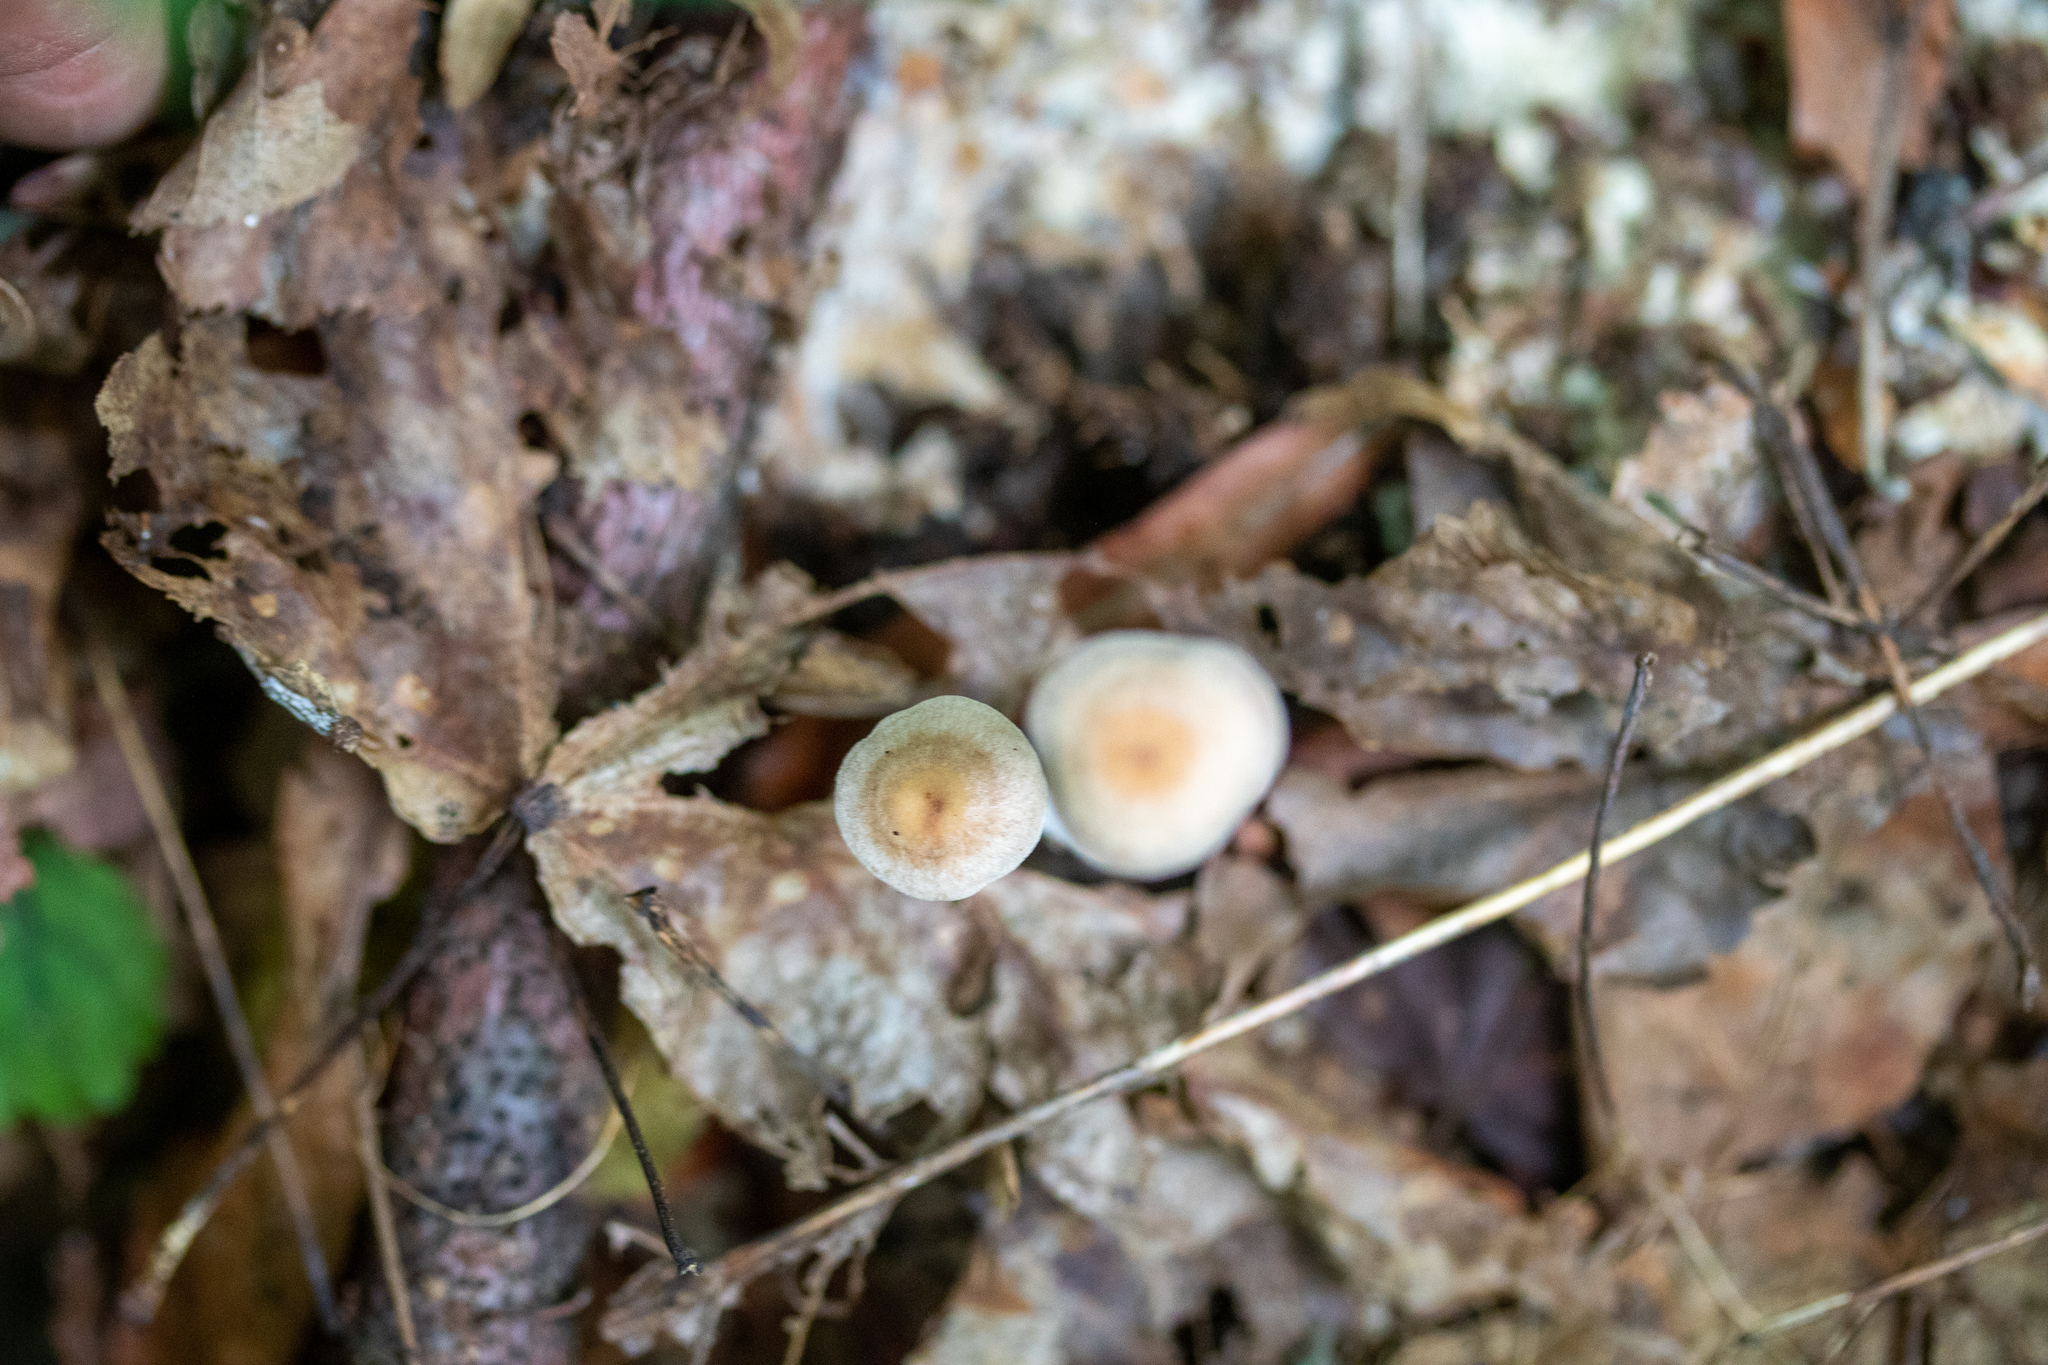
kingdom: Fungi
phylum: Basidiomycota
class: Agaricomycetes
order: Agaricales
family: Omphalotaceae
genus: Collybiopsis
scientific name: Collybiopsis confluens
